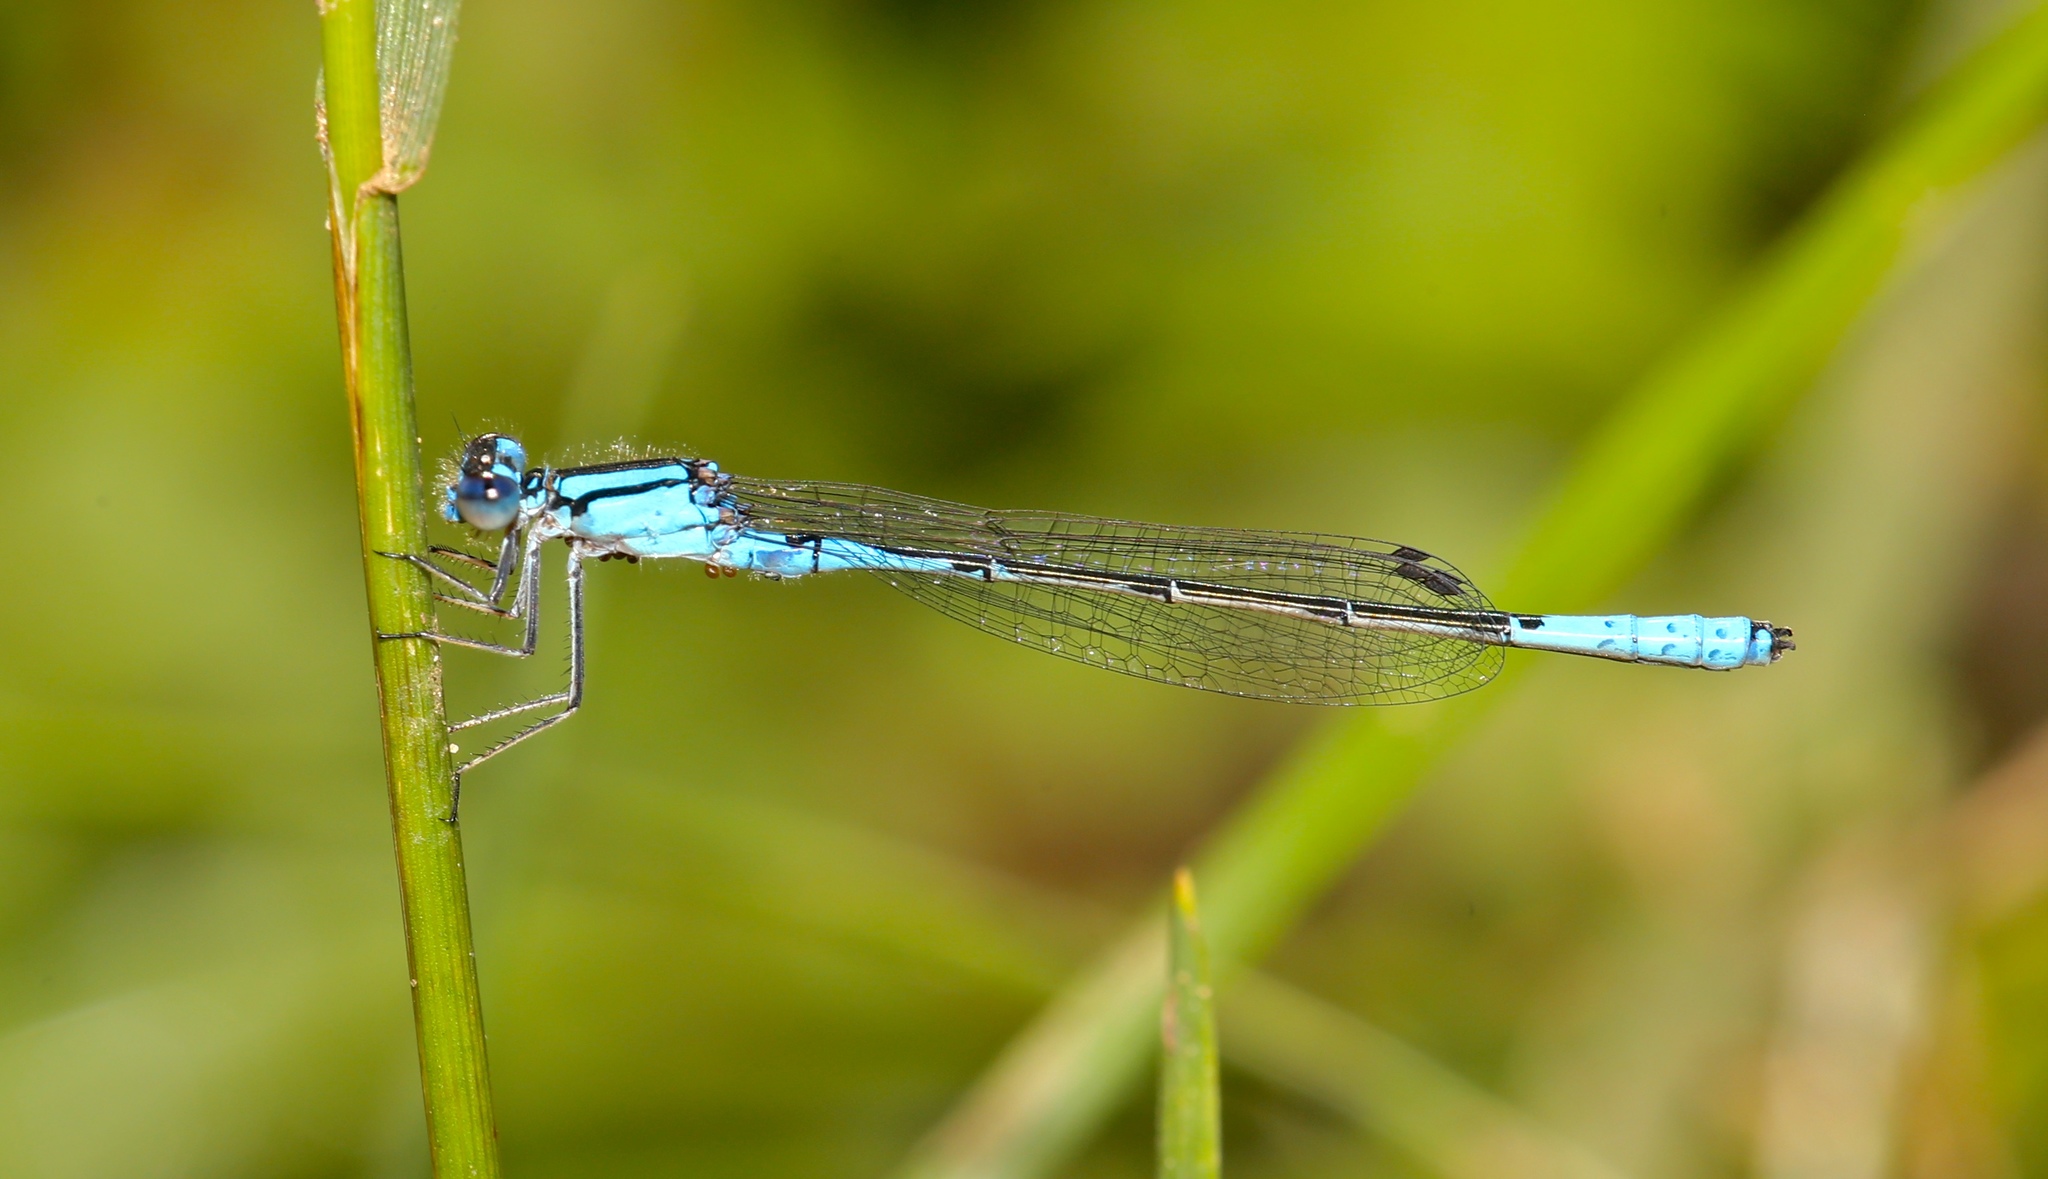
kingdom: Animalia
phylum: Arthropoda
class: Insecta
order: Odonata
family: Coenagrionidae
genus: Enallagma
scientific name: Enallagma aspersum
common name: Azure bluet
